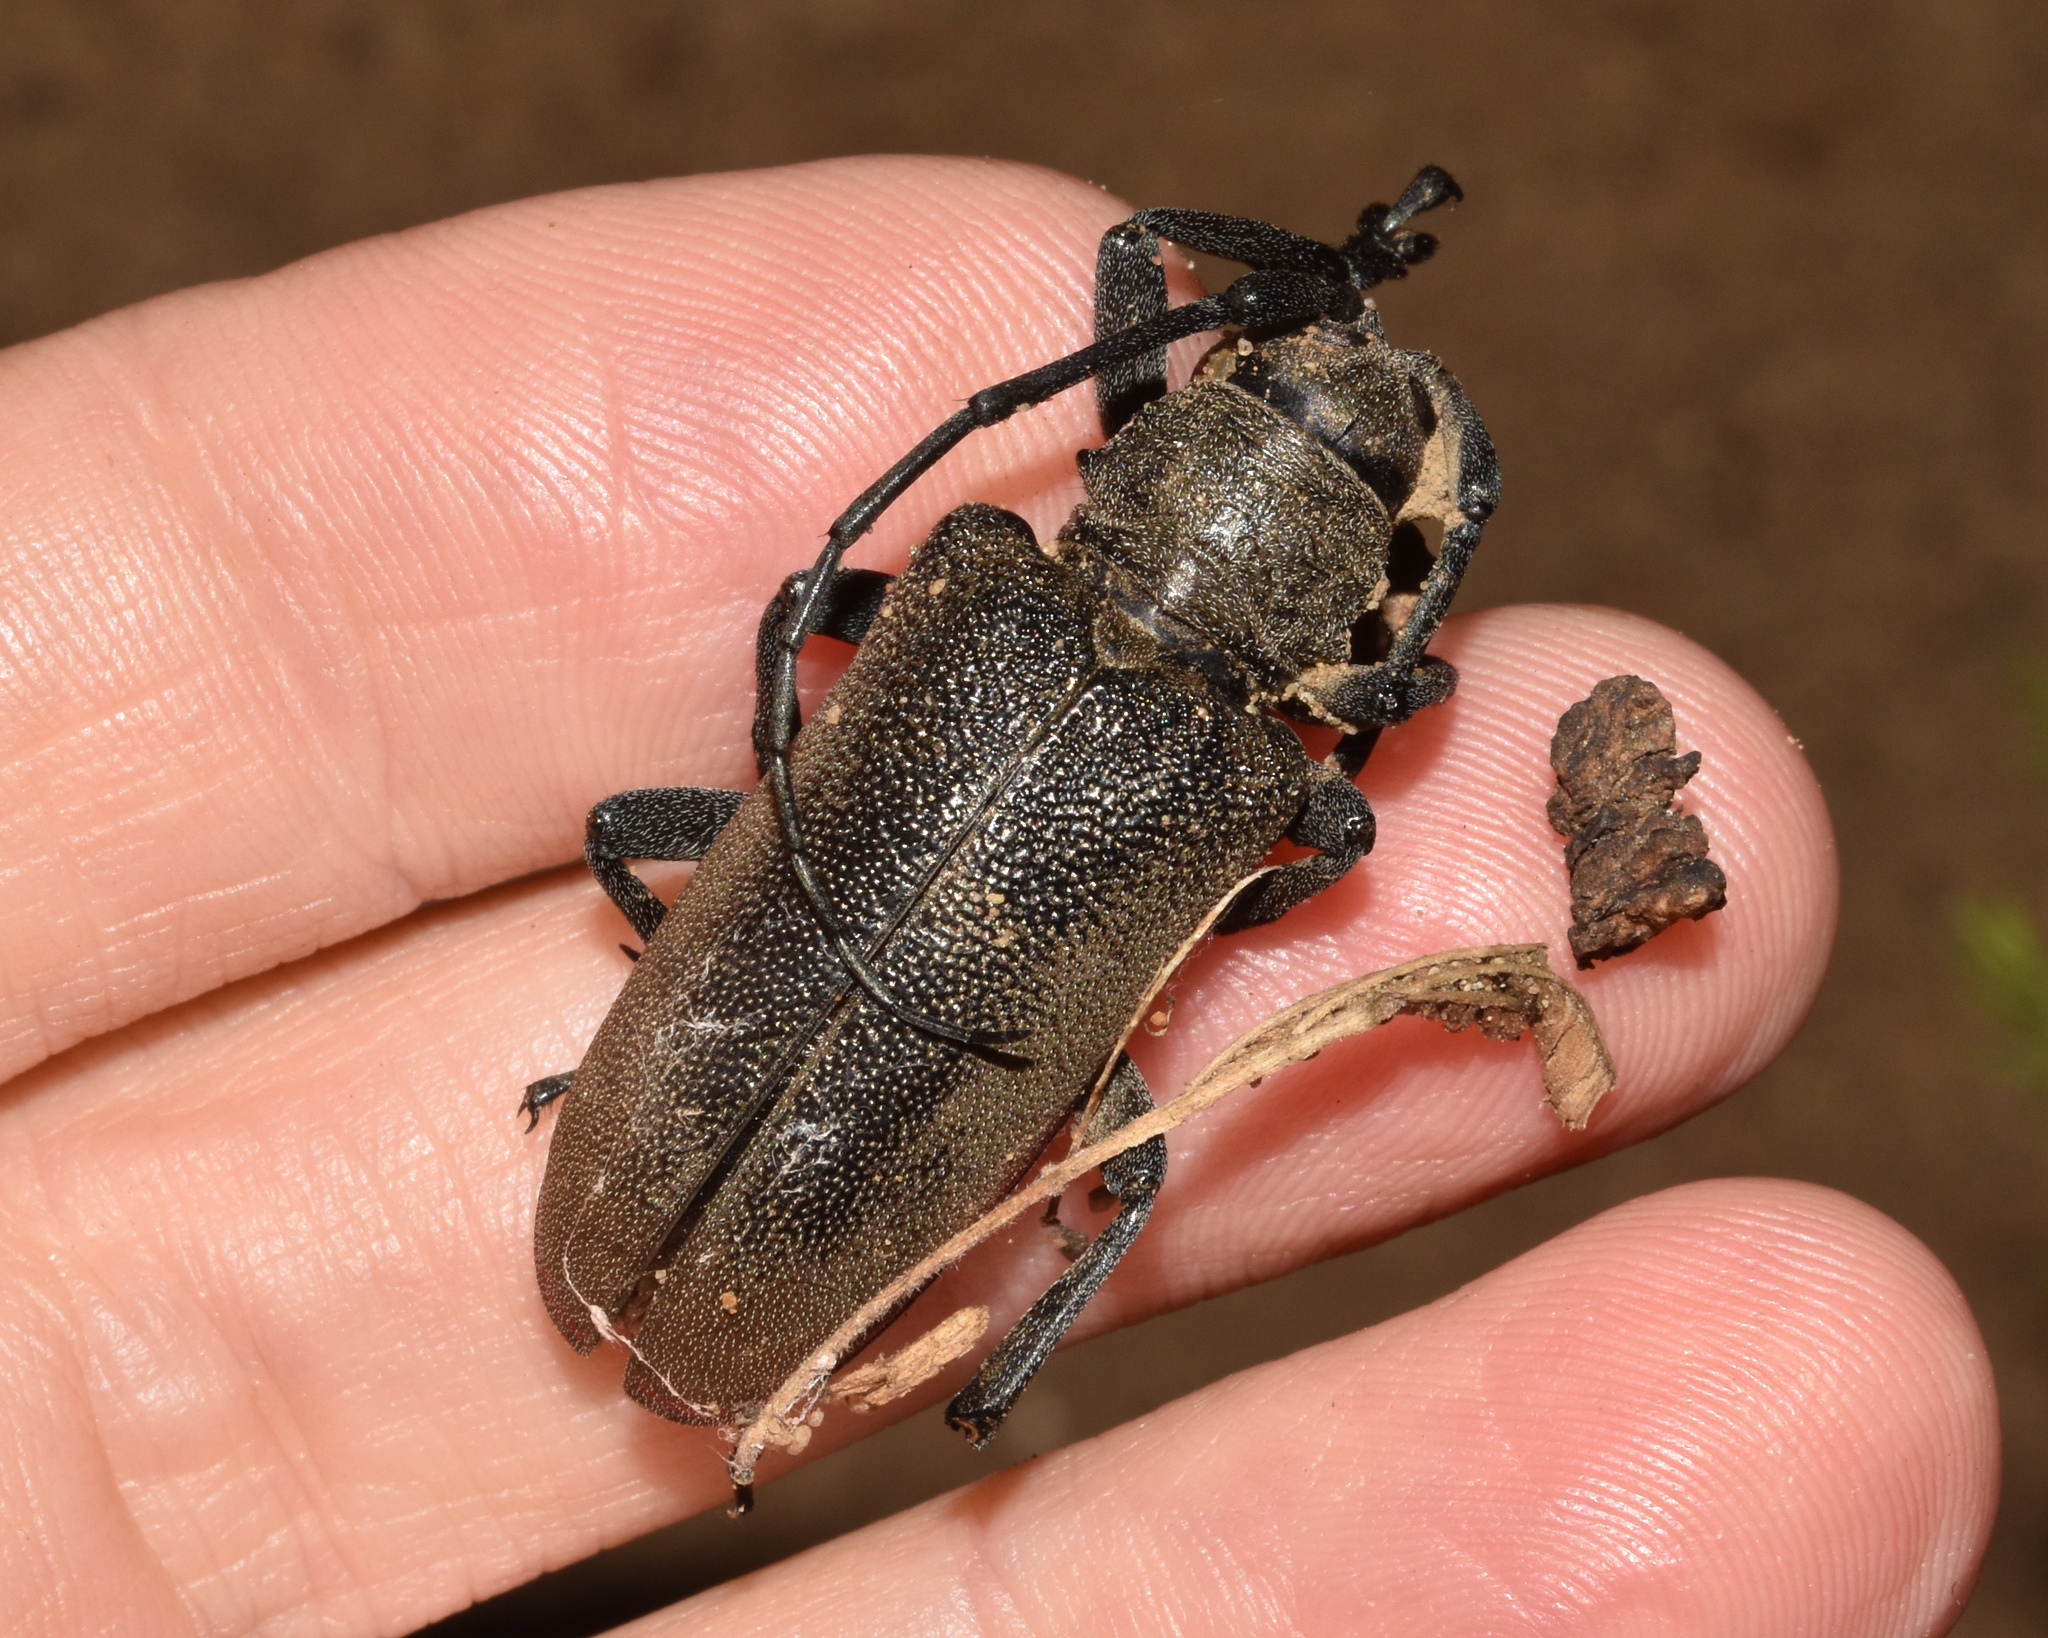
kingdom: Animalia
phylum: Arthropoda
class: Insecta
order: Coleoptera
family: Cerambycidae
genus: Ceroplesis
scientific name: Ceroplesis ferrugator
